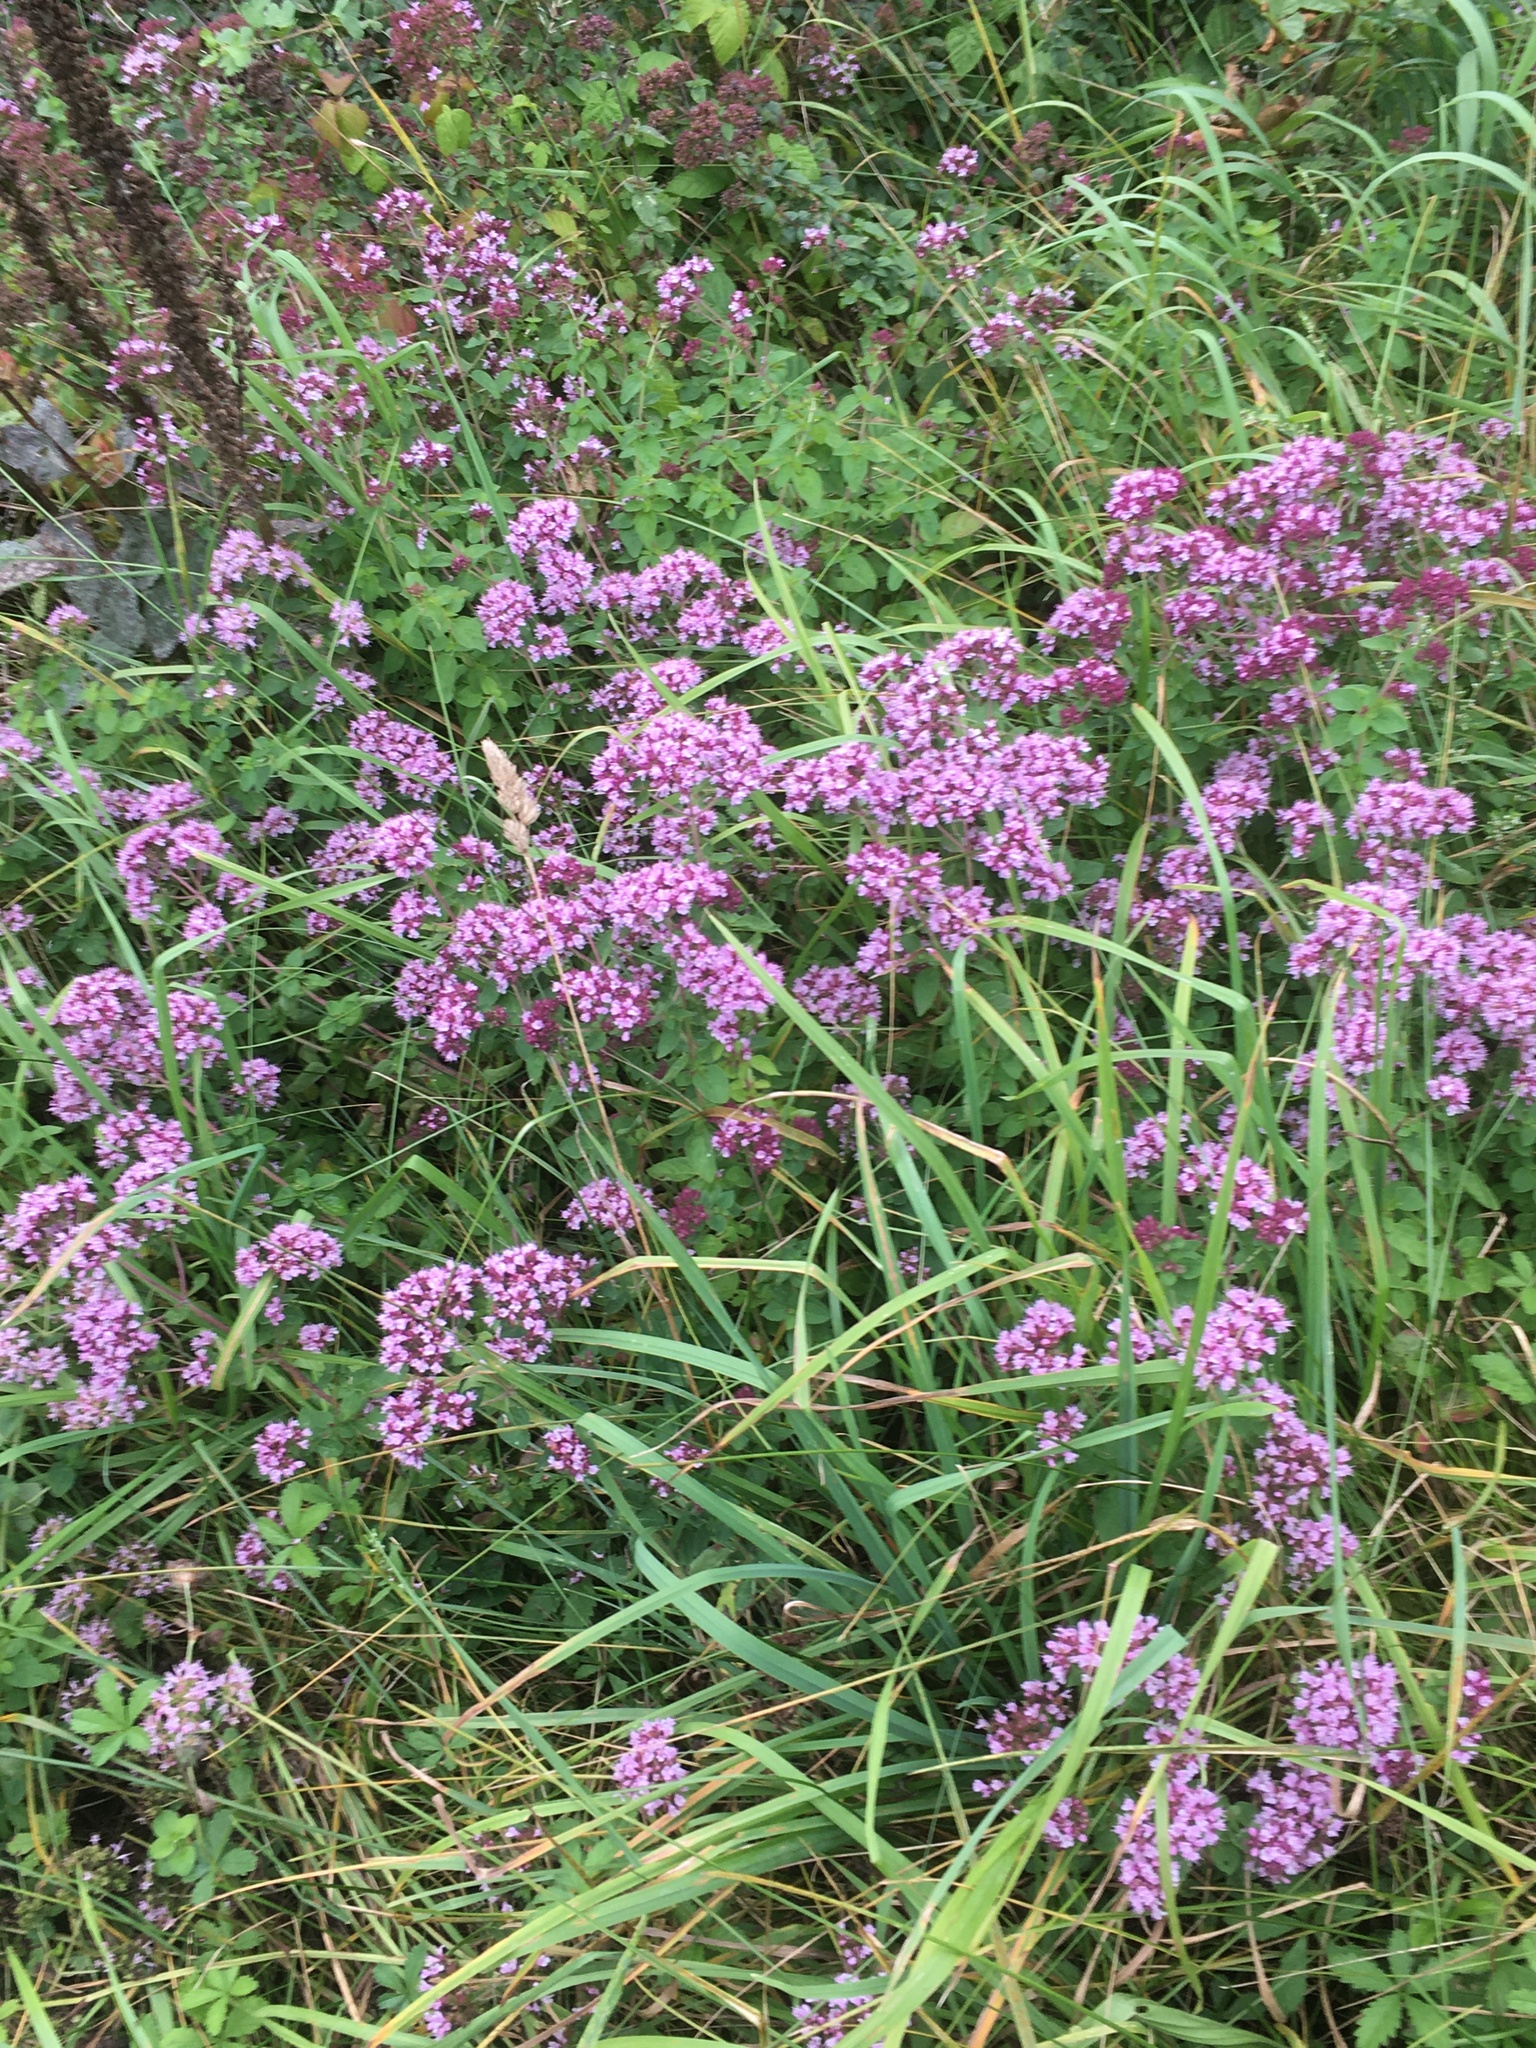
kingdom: Plantae
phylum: Tracheophyta
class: Magnoliopsida
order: Lamiales
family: Lamiaceae
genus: Origanum
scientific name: Origanum vulgare
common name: Wild marjoram
